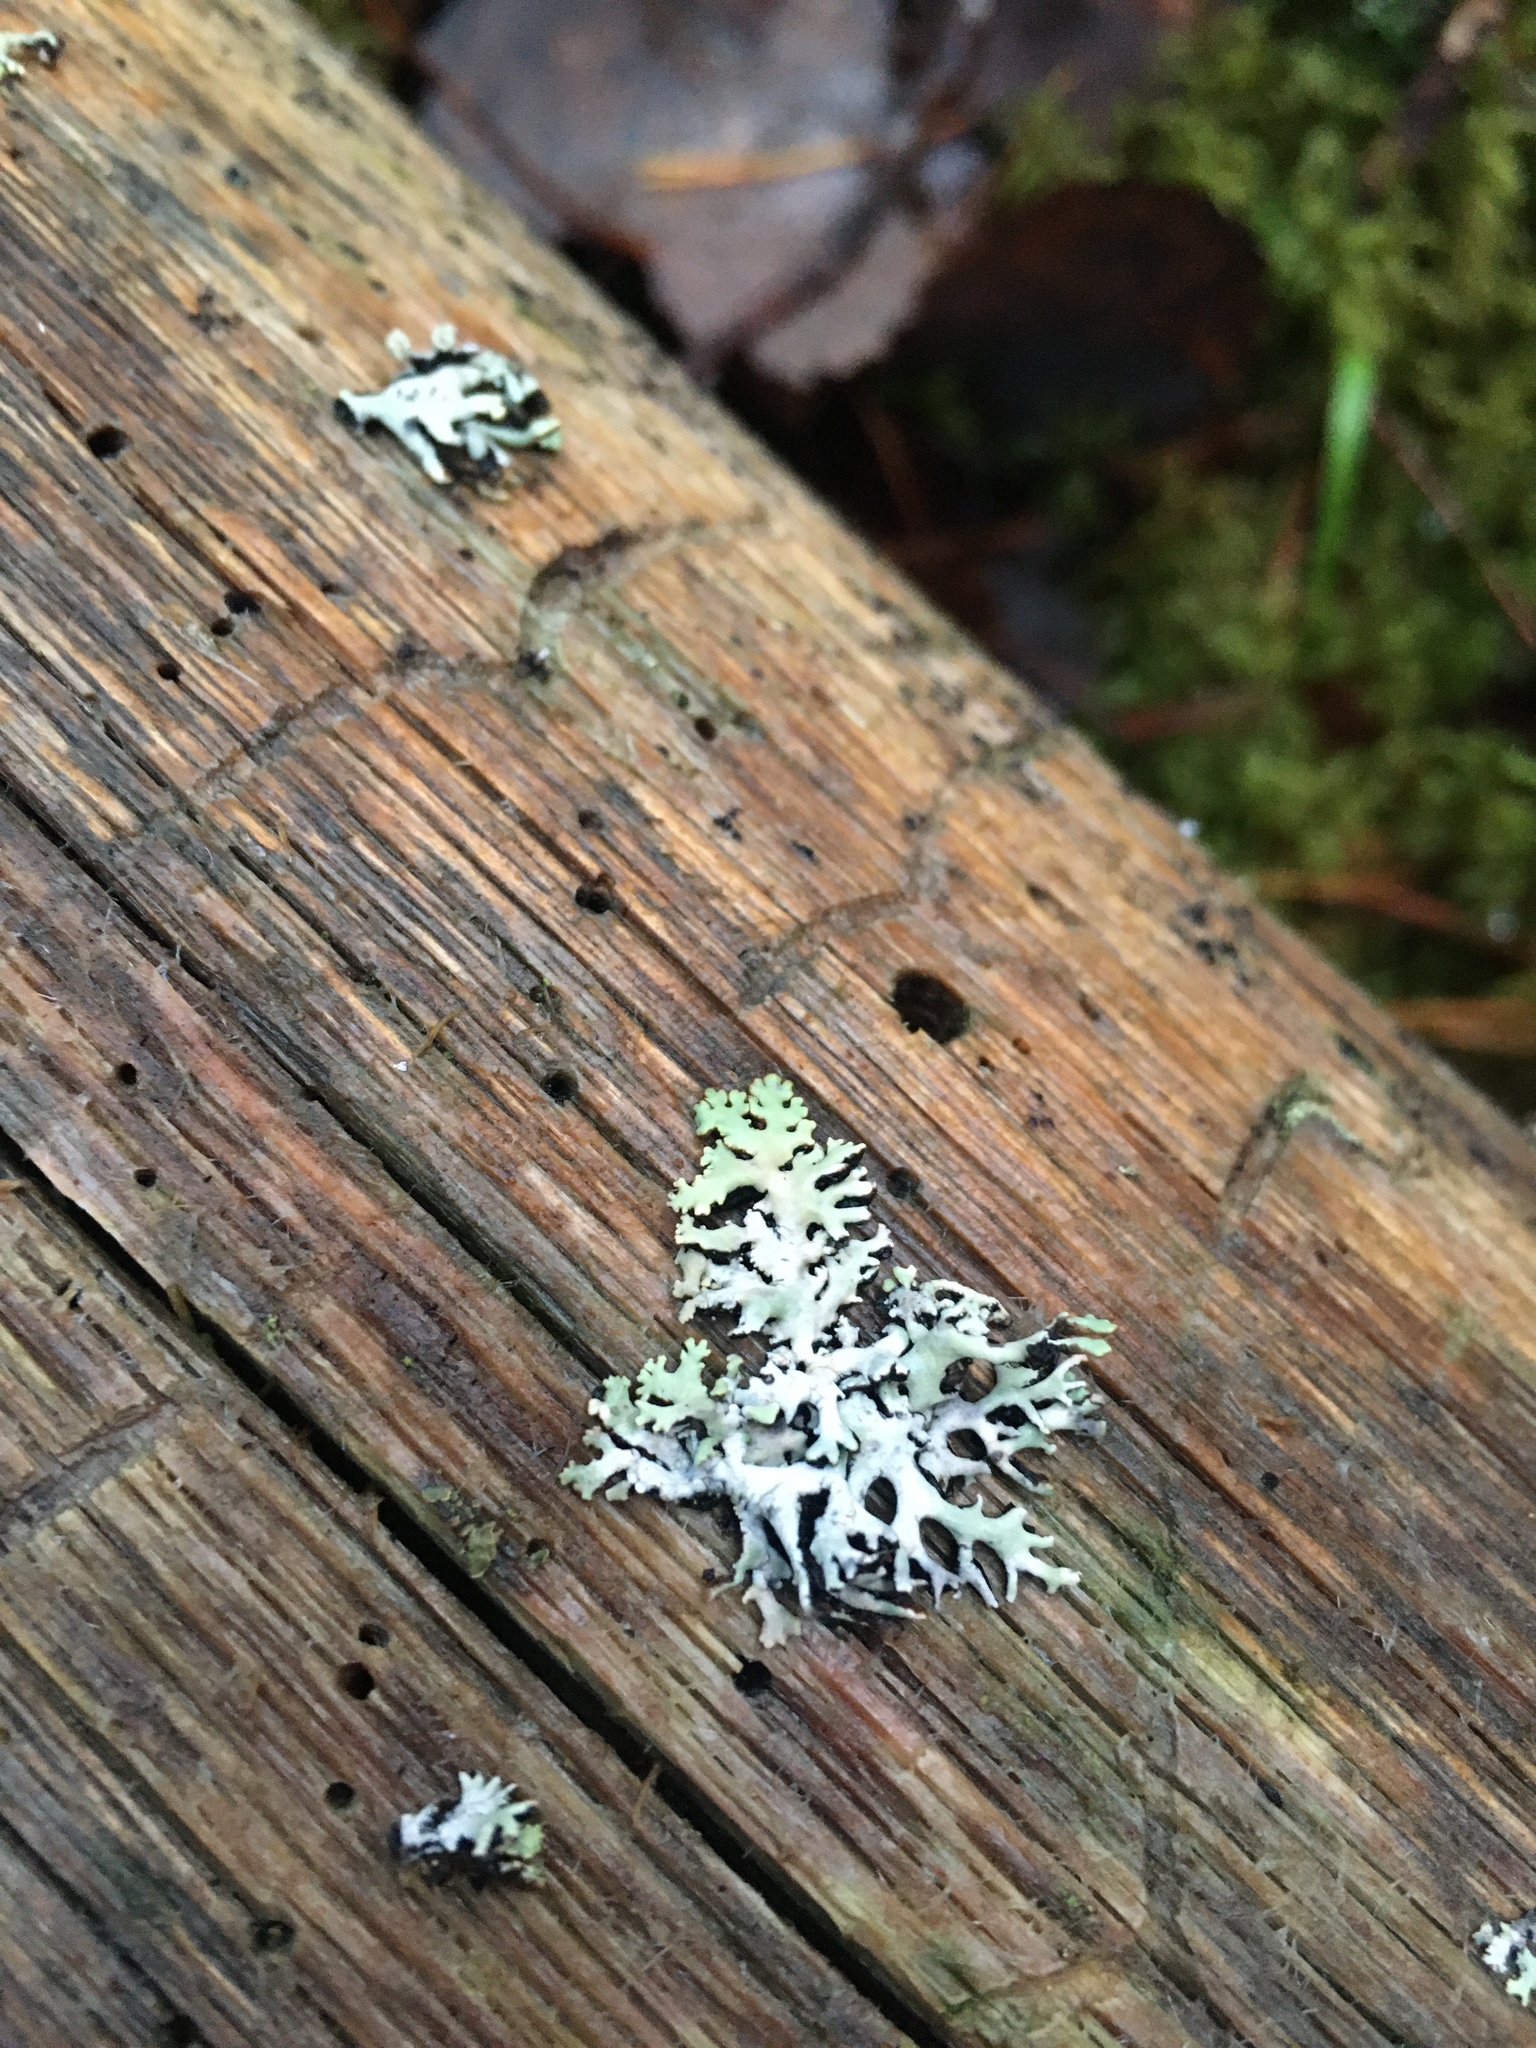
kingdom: Fungi
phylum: Ascomycota
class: Lecanoromycetes
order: Lecanorales
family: Parmeliaceae
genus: Hypogymnia
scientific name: Hypogymnia physodes
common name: Dark crottle
